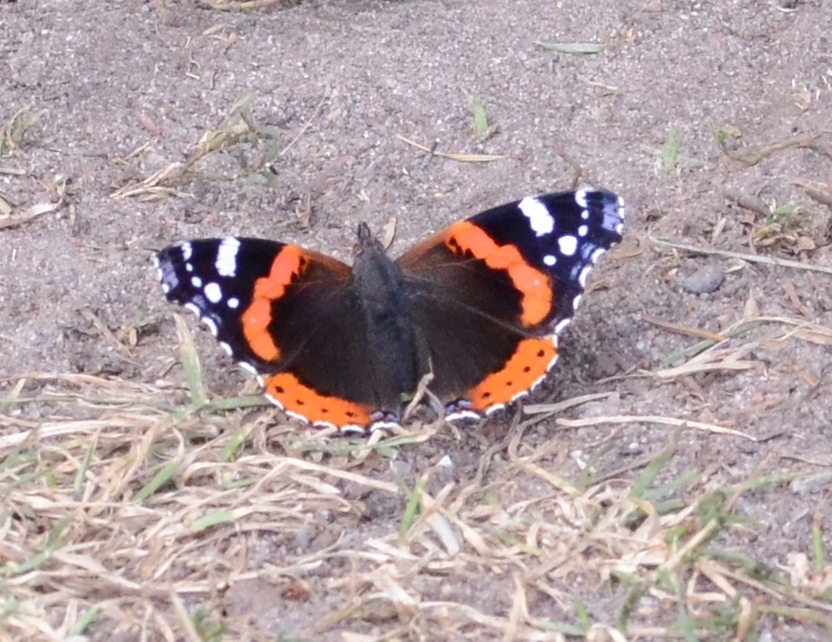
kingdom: Animalia
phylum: Arthropoda
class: Insecta
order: Lepidoptera
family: Nymphalidae
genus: Vanessa
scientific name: Vanessa atalanta
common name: Red admiral
